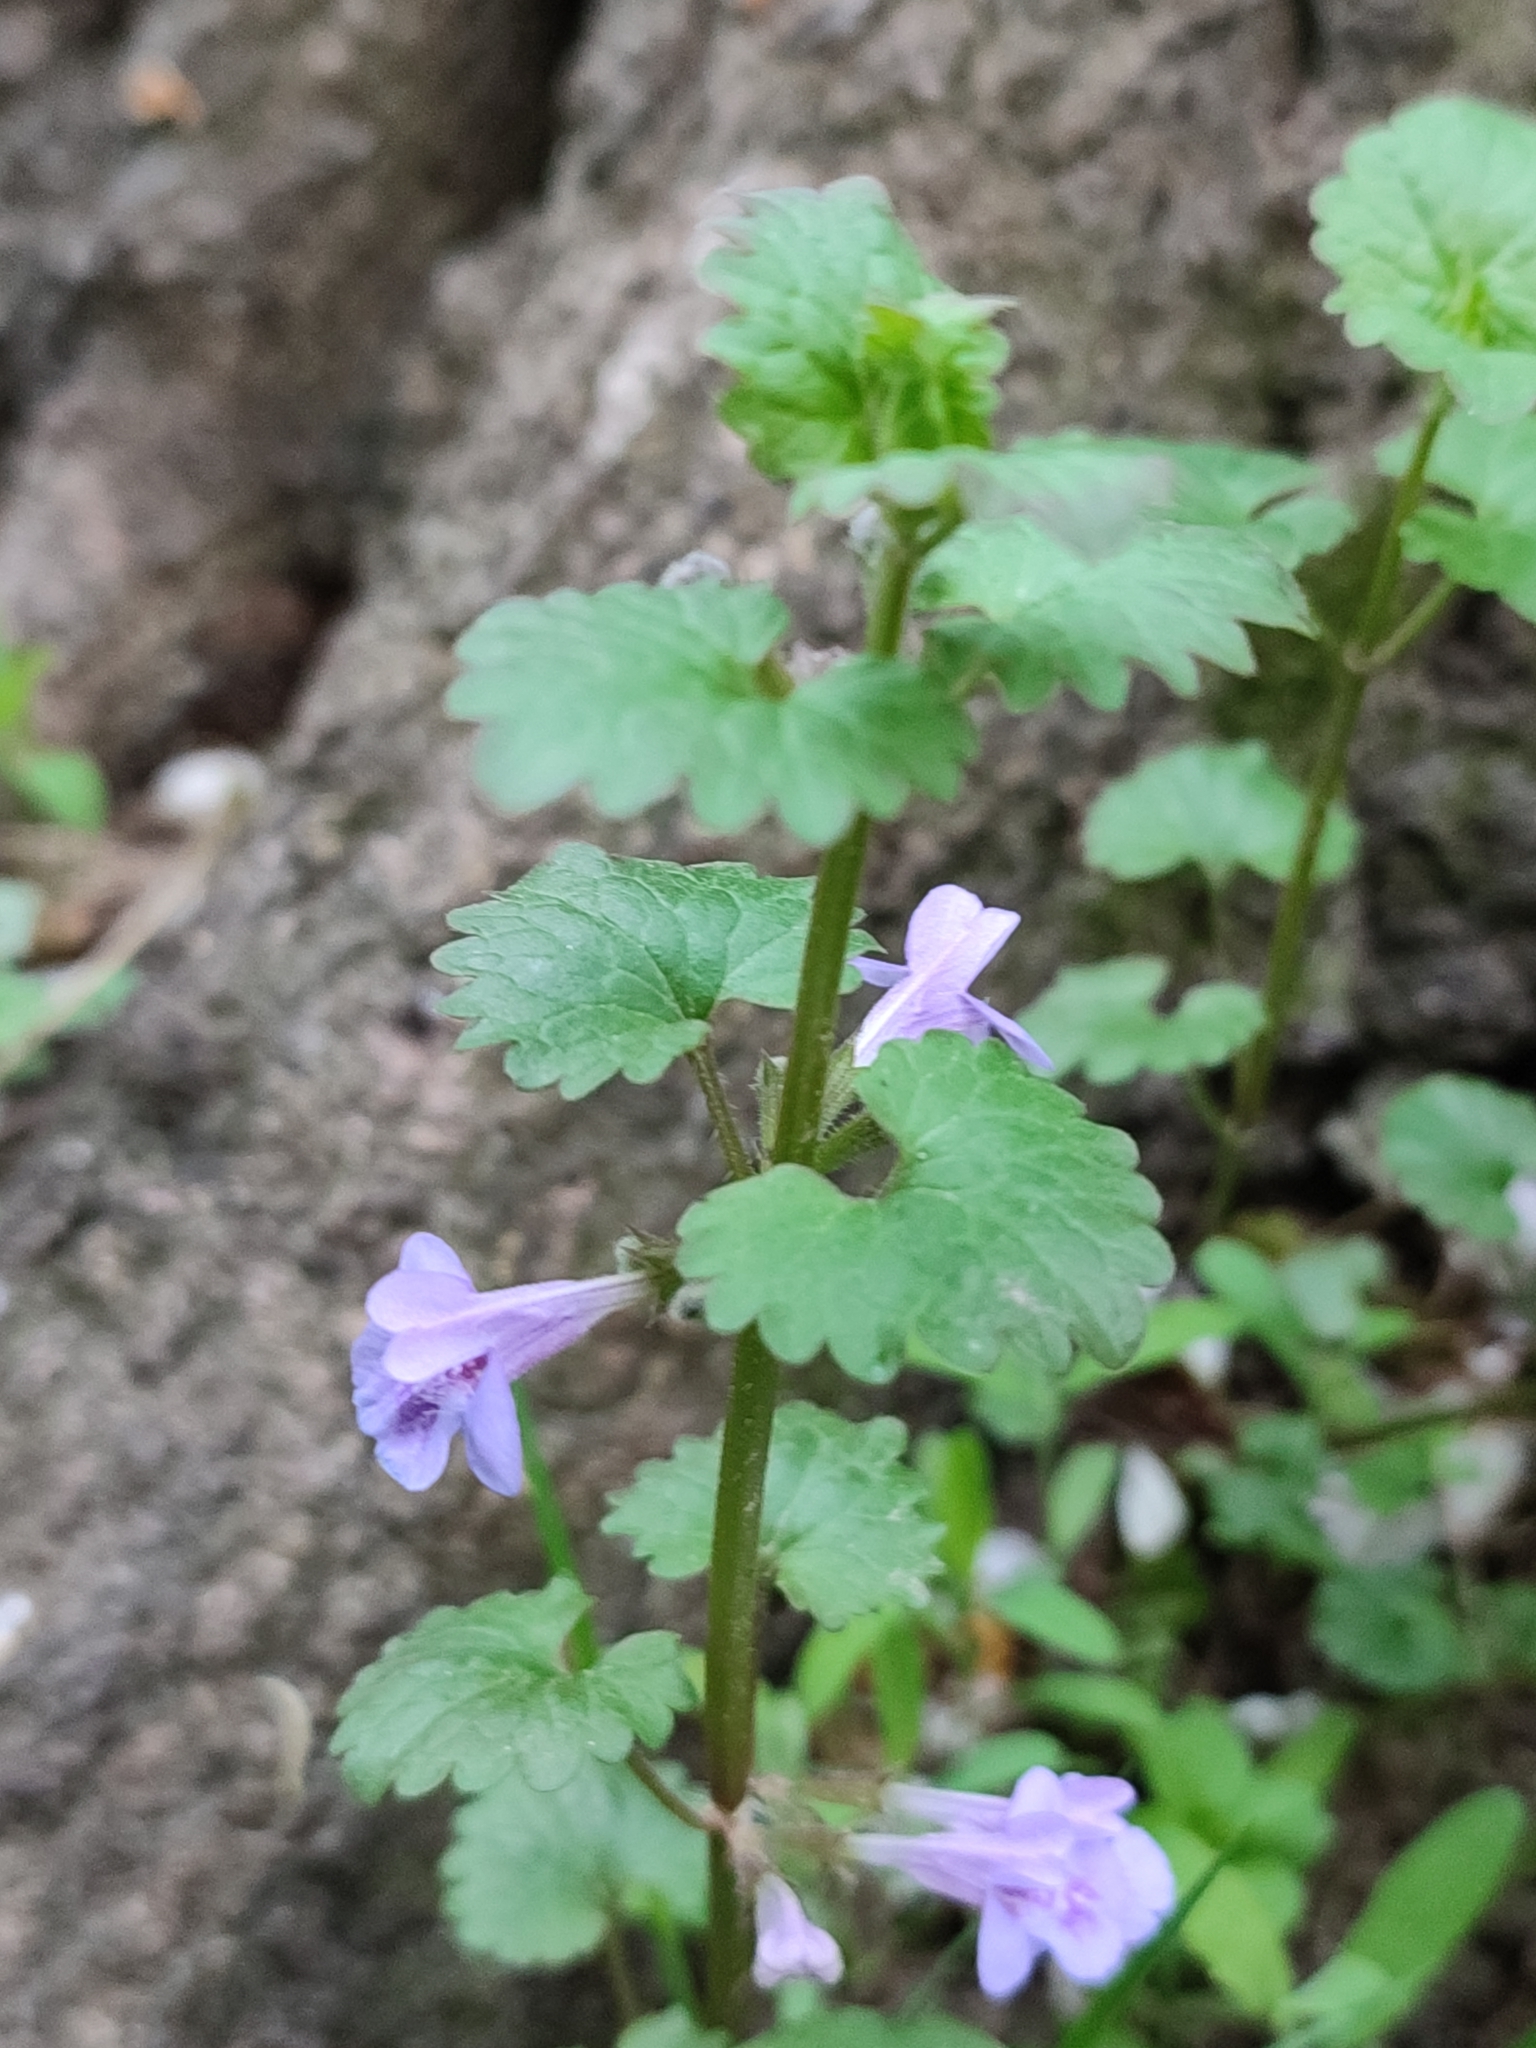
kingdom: Plantae
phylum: Tracheophyta
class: Magnoliopsida
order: Lamiales
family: Lamiaceae
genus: Glechoma
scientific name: Glechoma hederacea
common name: Ground ivy
